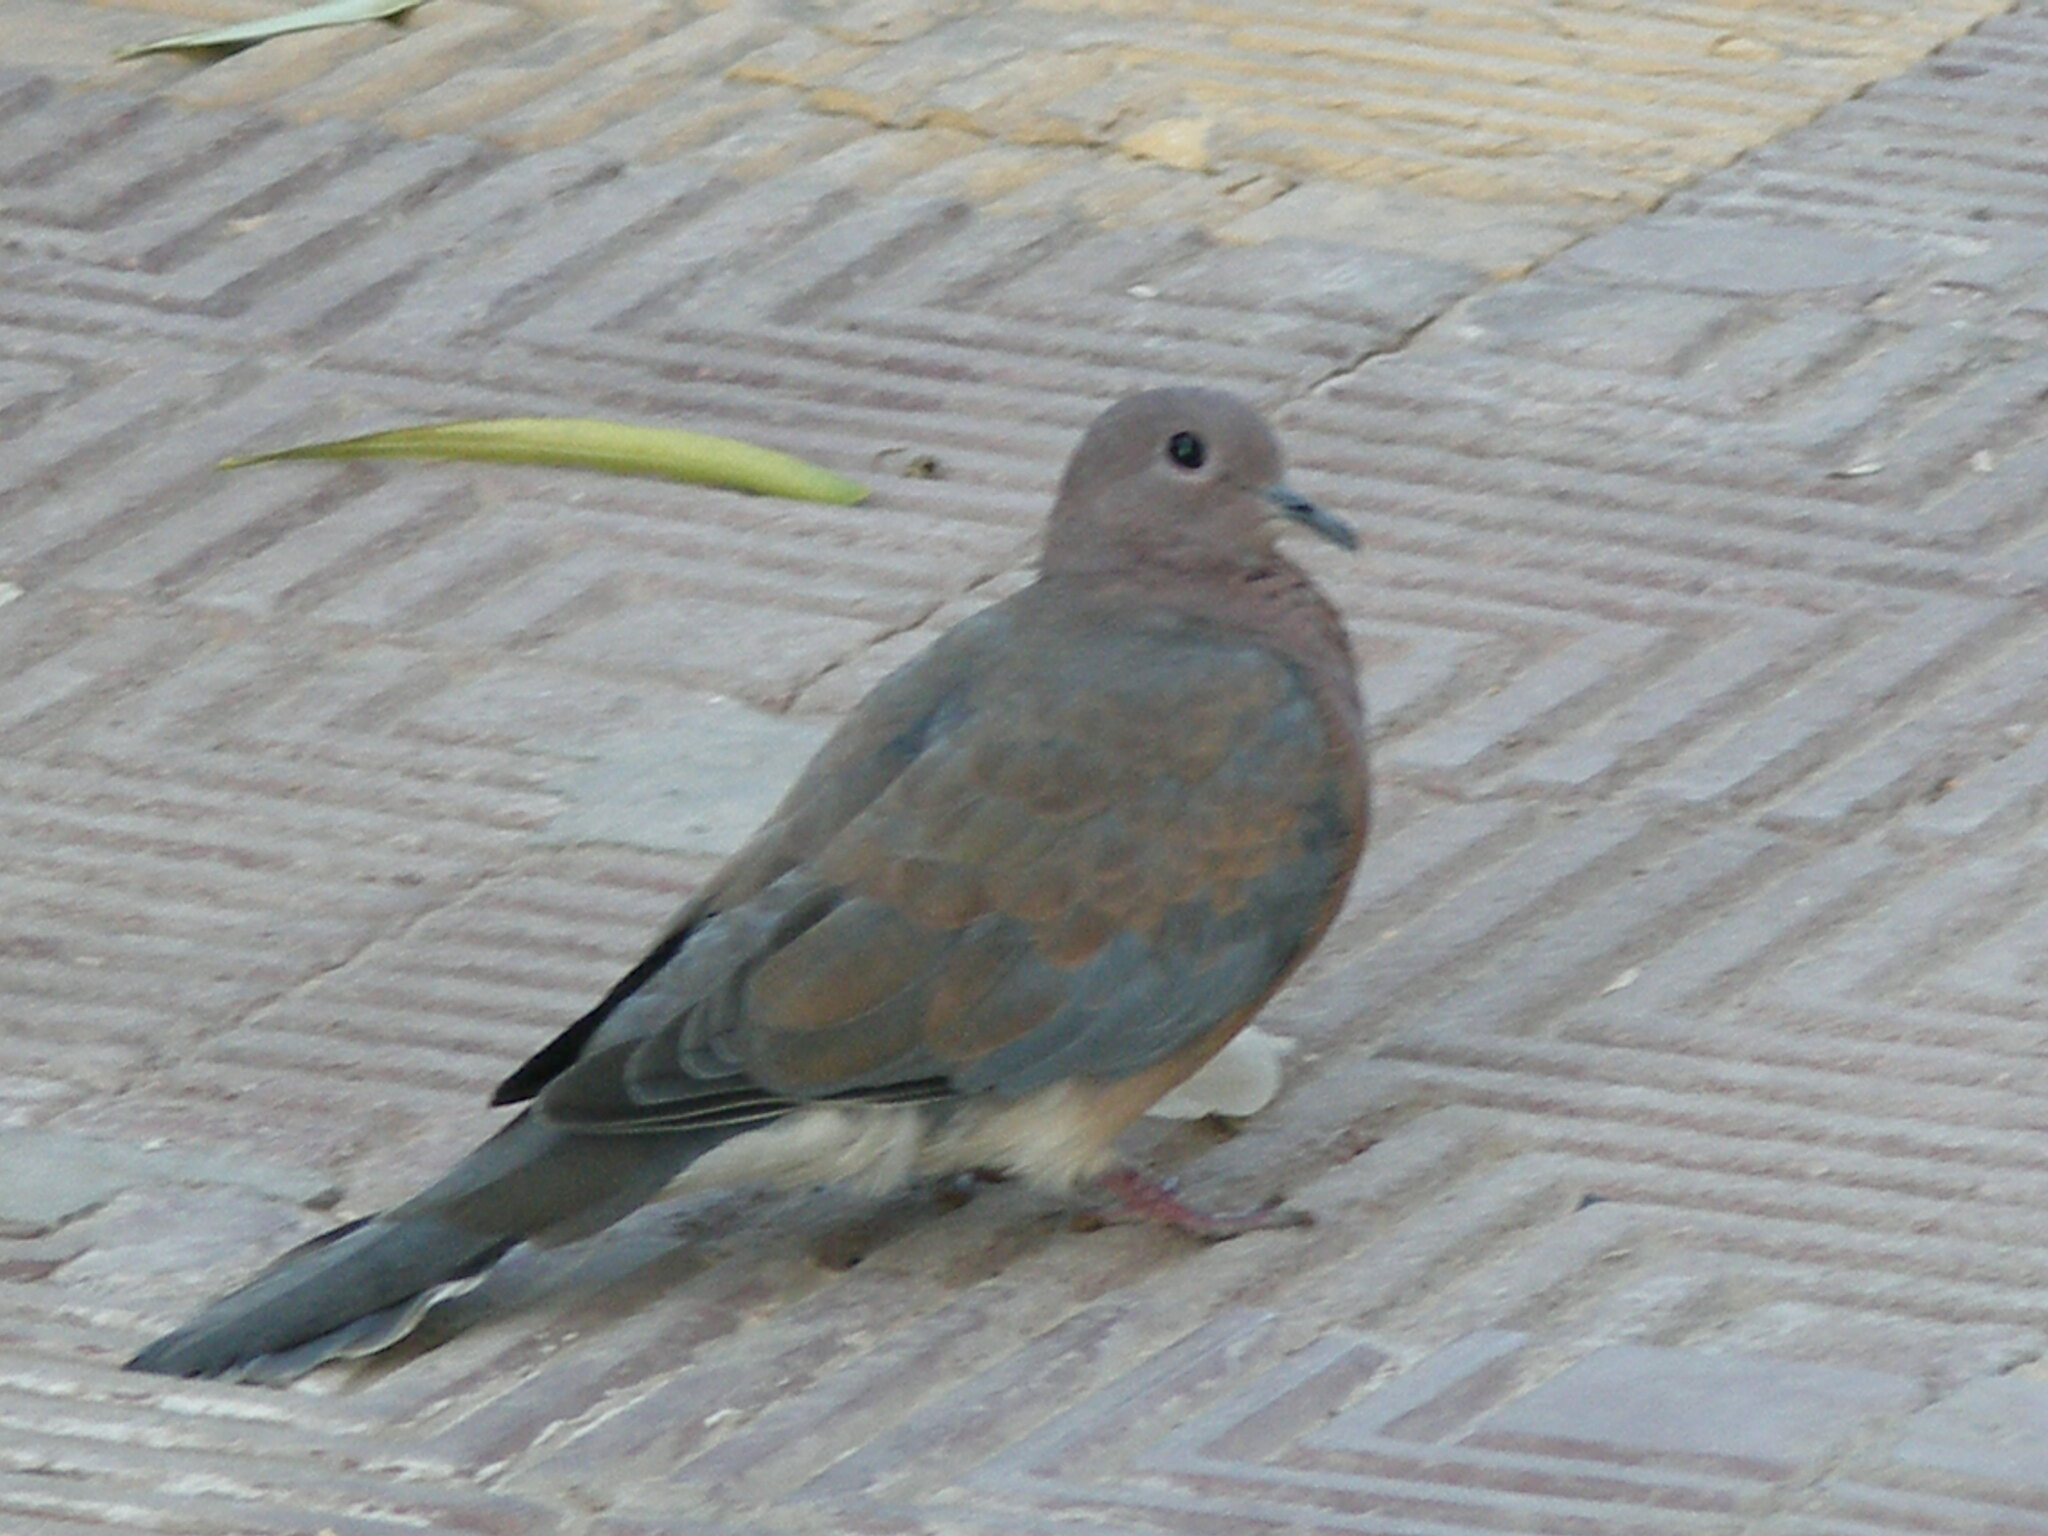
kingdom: Animalia
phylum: Chordata
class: Aves
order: Columbiformes
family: Columbidae
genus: Spilopelia
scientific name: Spilopelia senegalensis
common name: Laughing dove
